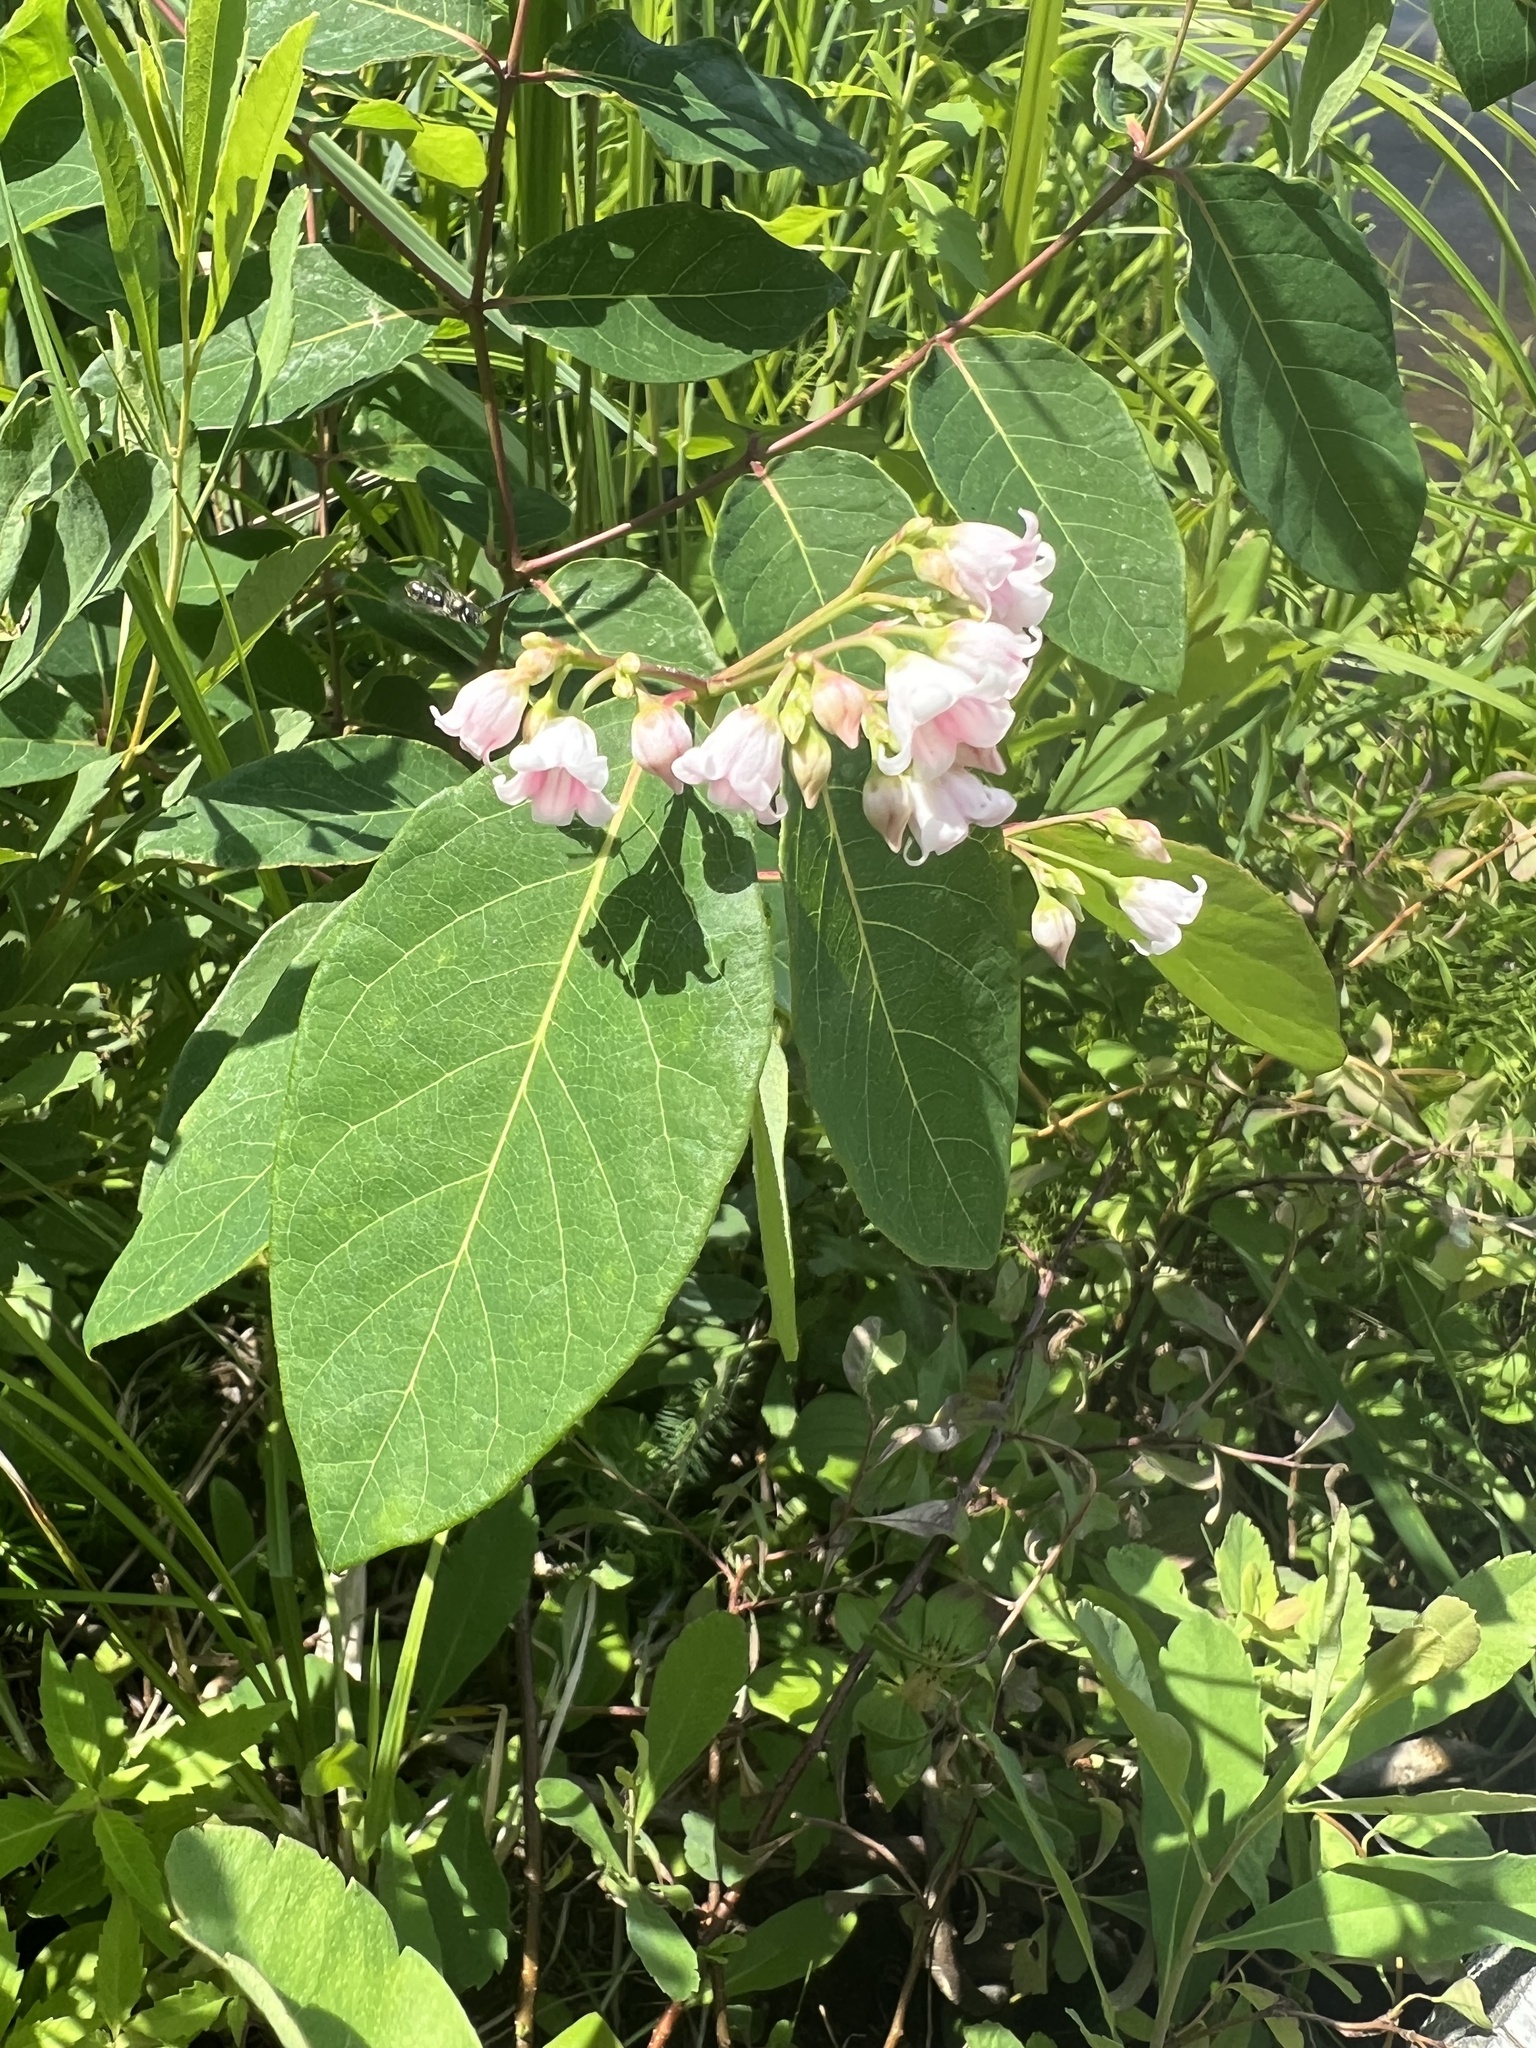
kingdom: Plantae
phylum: Tracheophyta
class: Magnoliopsida
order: Gentianales
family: Apocynaceae
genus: Apocynum
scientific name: Apocynum androsaemifolium
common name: Spreading dogbane
